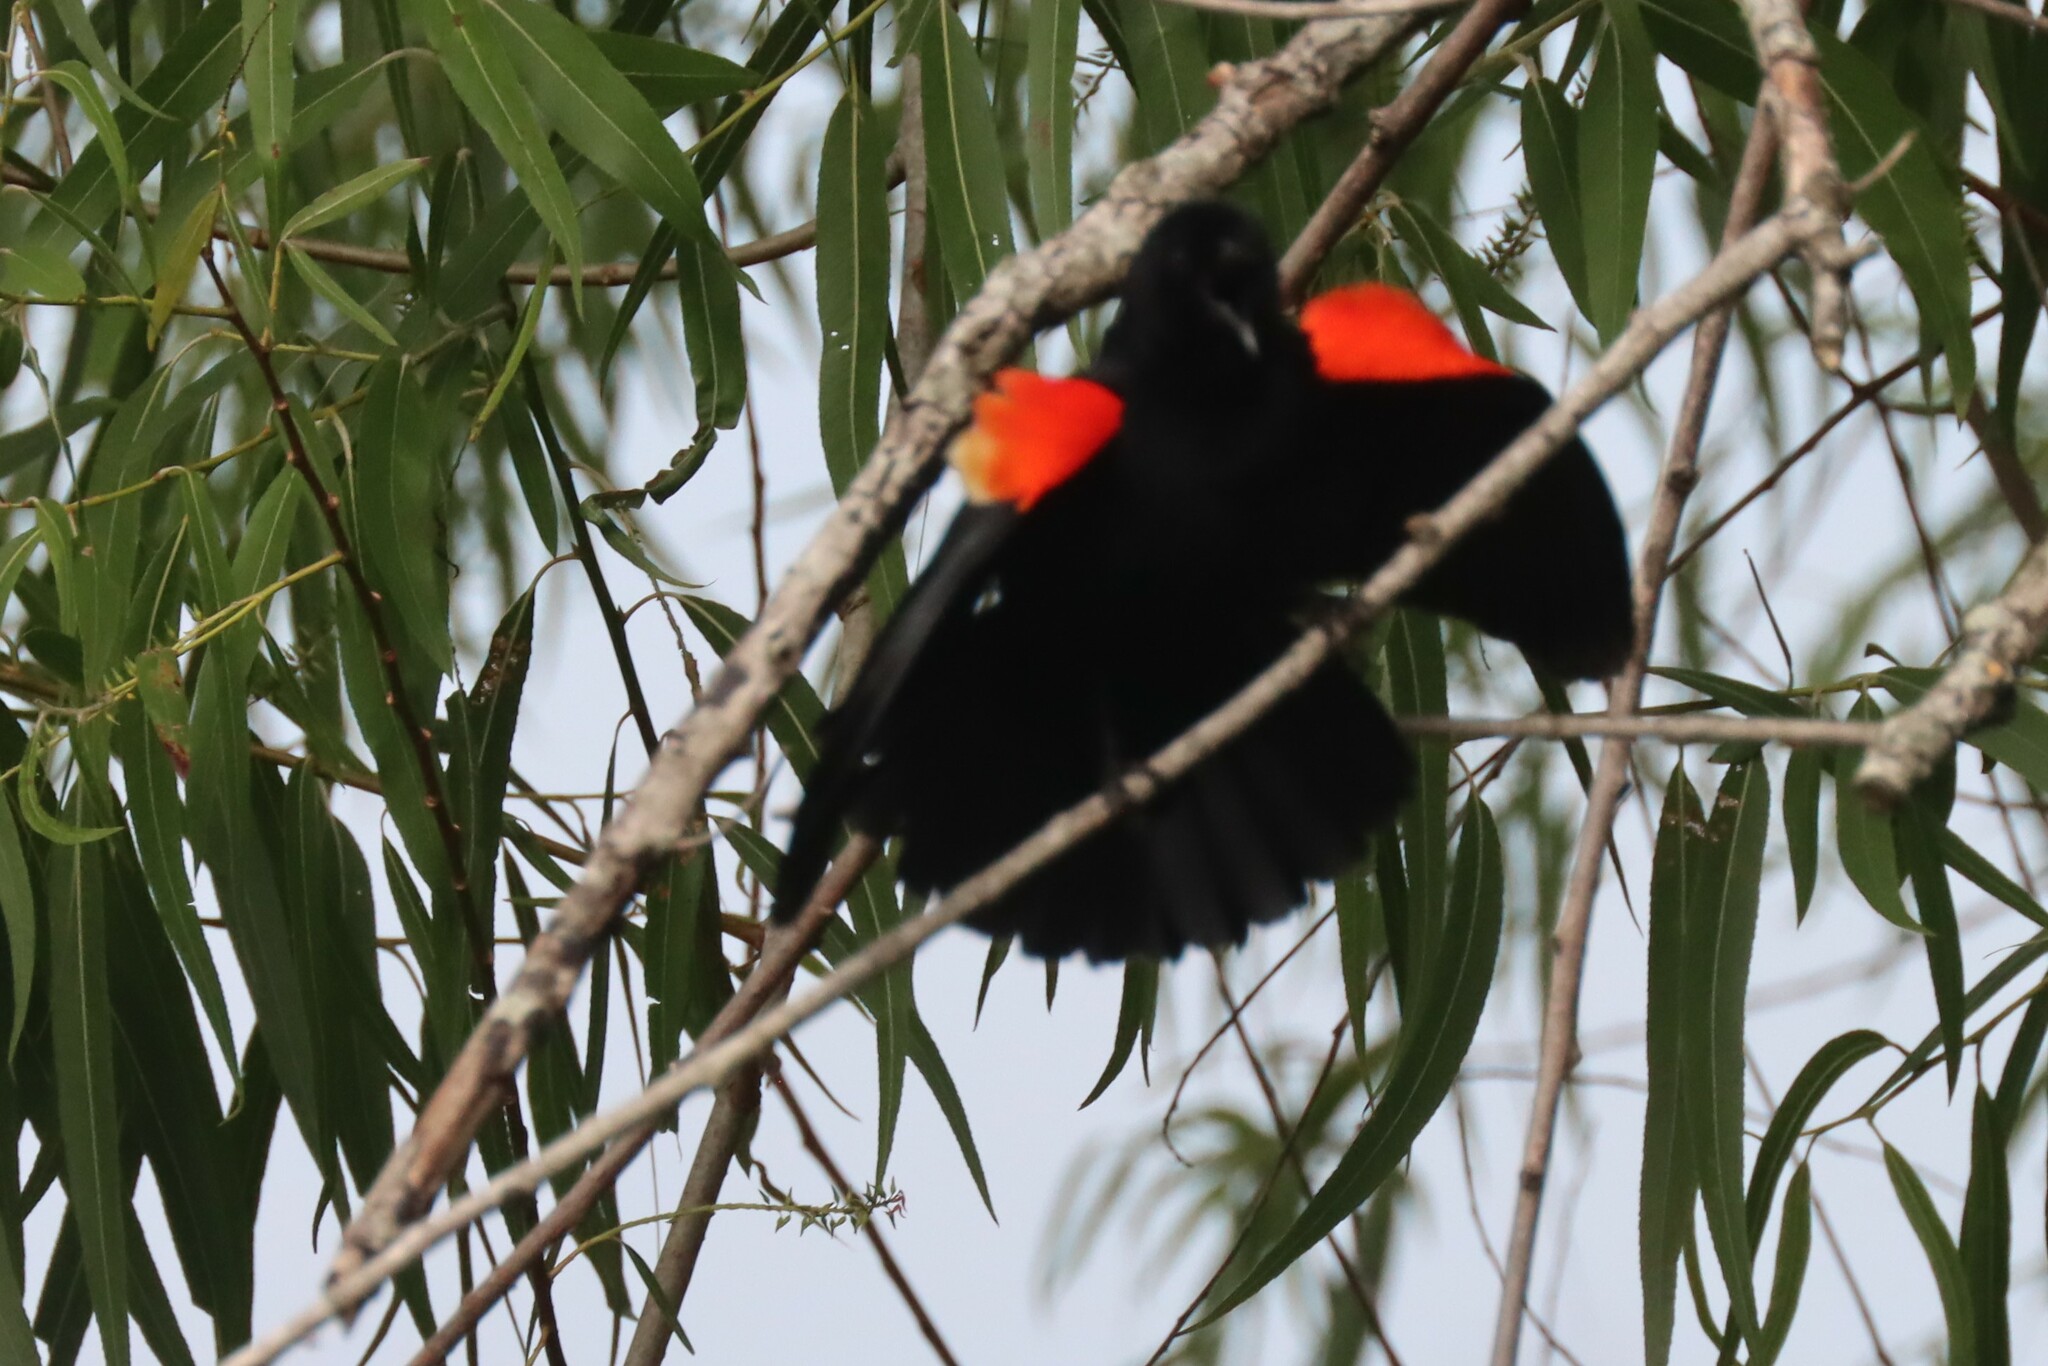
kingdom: Animalia
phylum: Chordata
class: Aves
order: Passeriformes
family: Icteridae
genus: Agelaius
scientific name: Agelaius phoeniceus
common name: Red-winged blackbird
